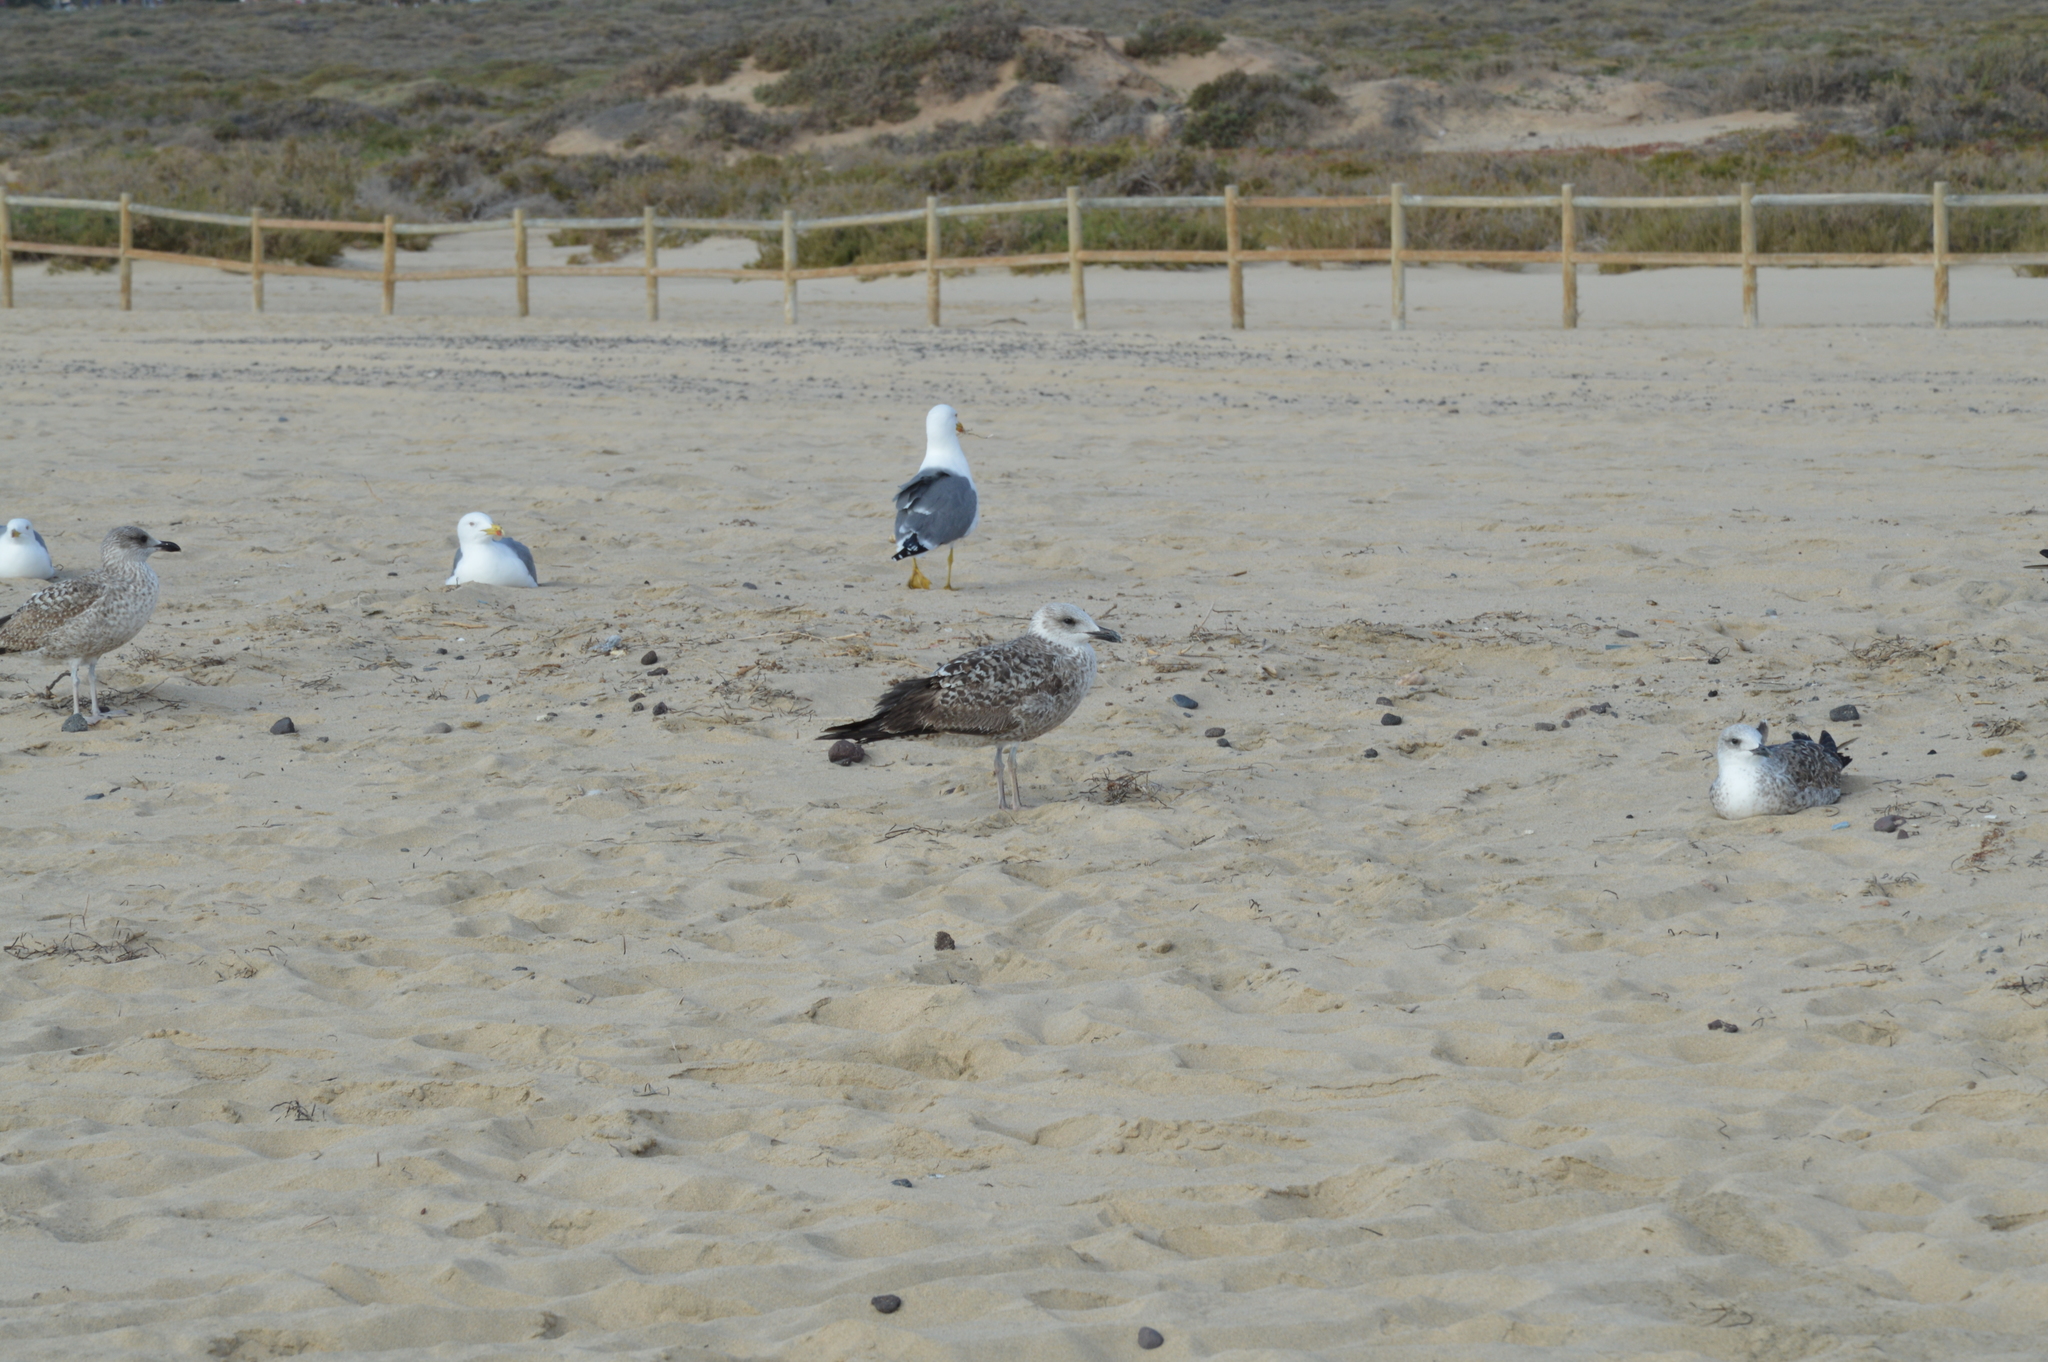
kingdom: Animalia
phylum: Chordata
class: Aves
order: Charadriiformes
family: Laridae
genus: Larus
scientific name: Larus michahellis
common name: Yellow-legged gull
